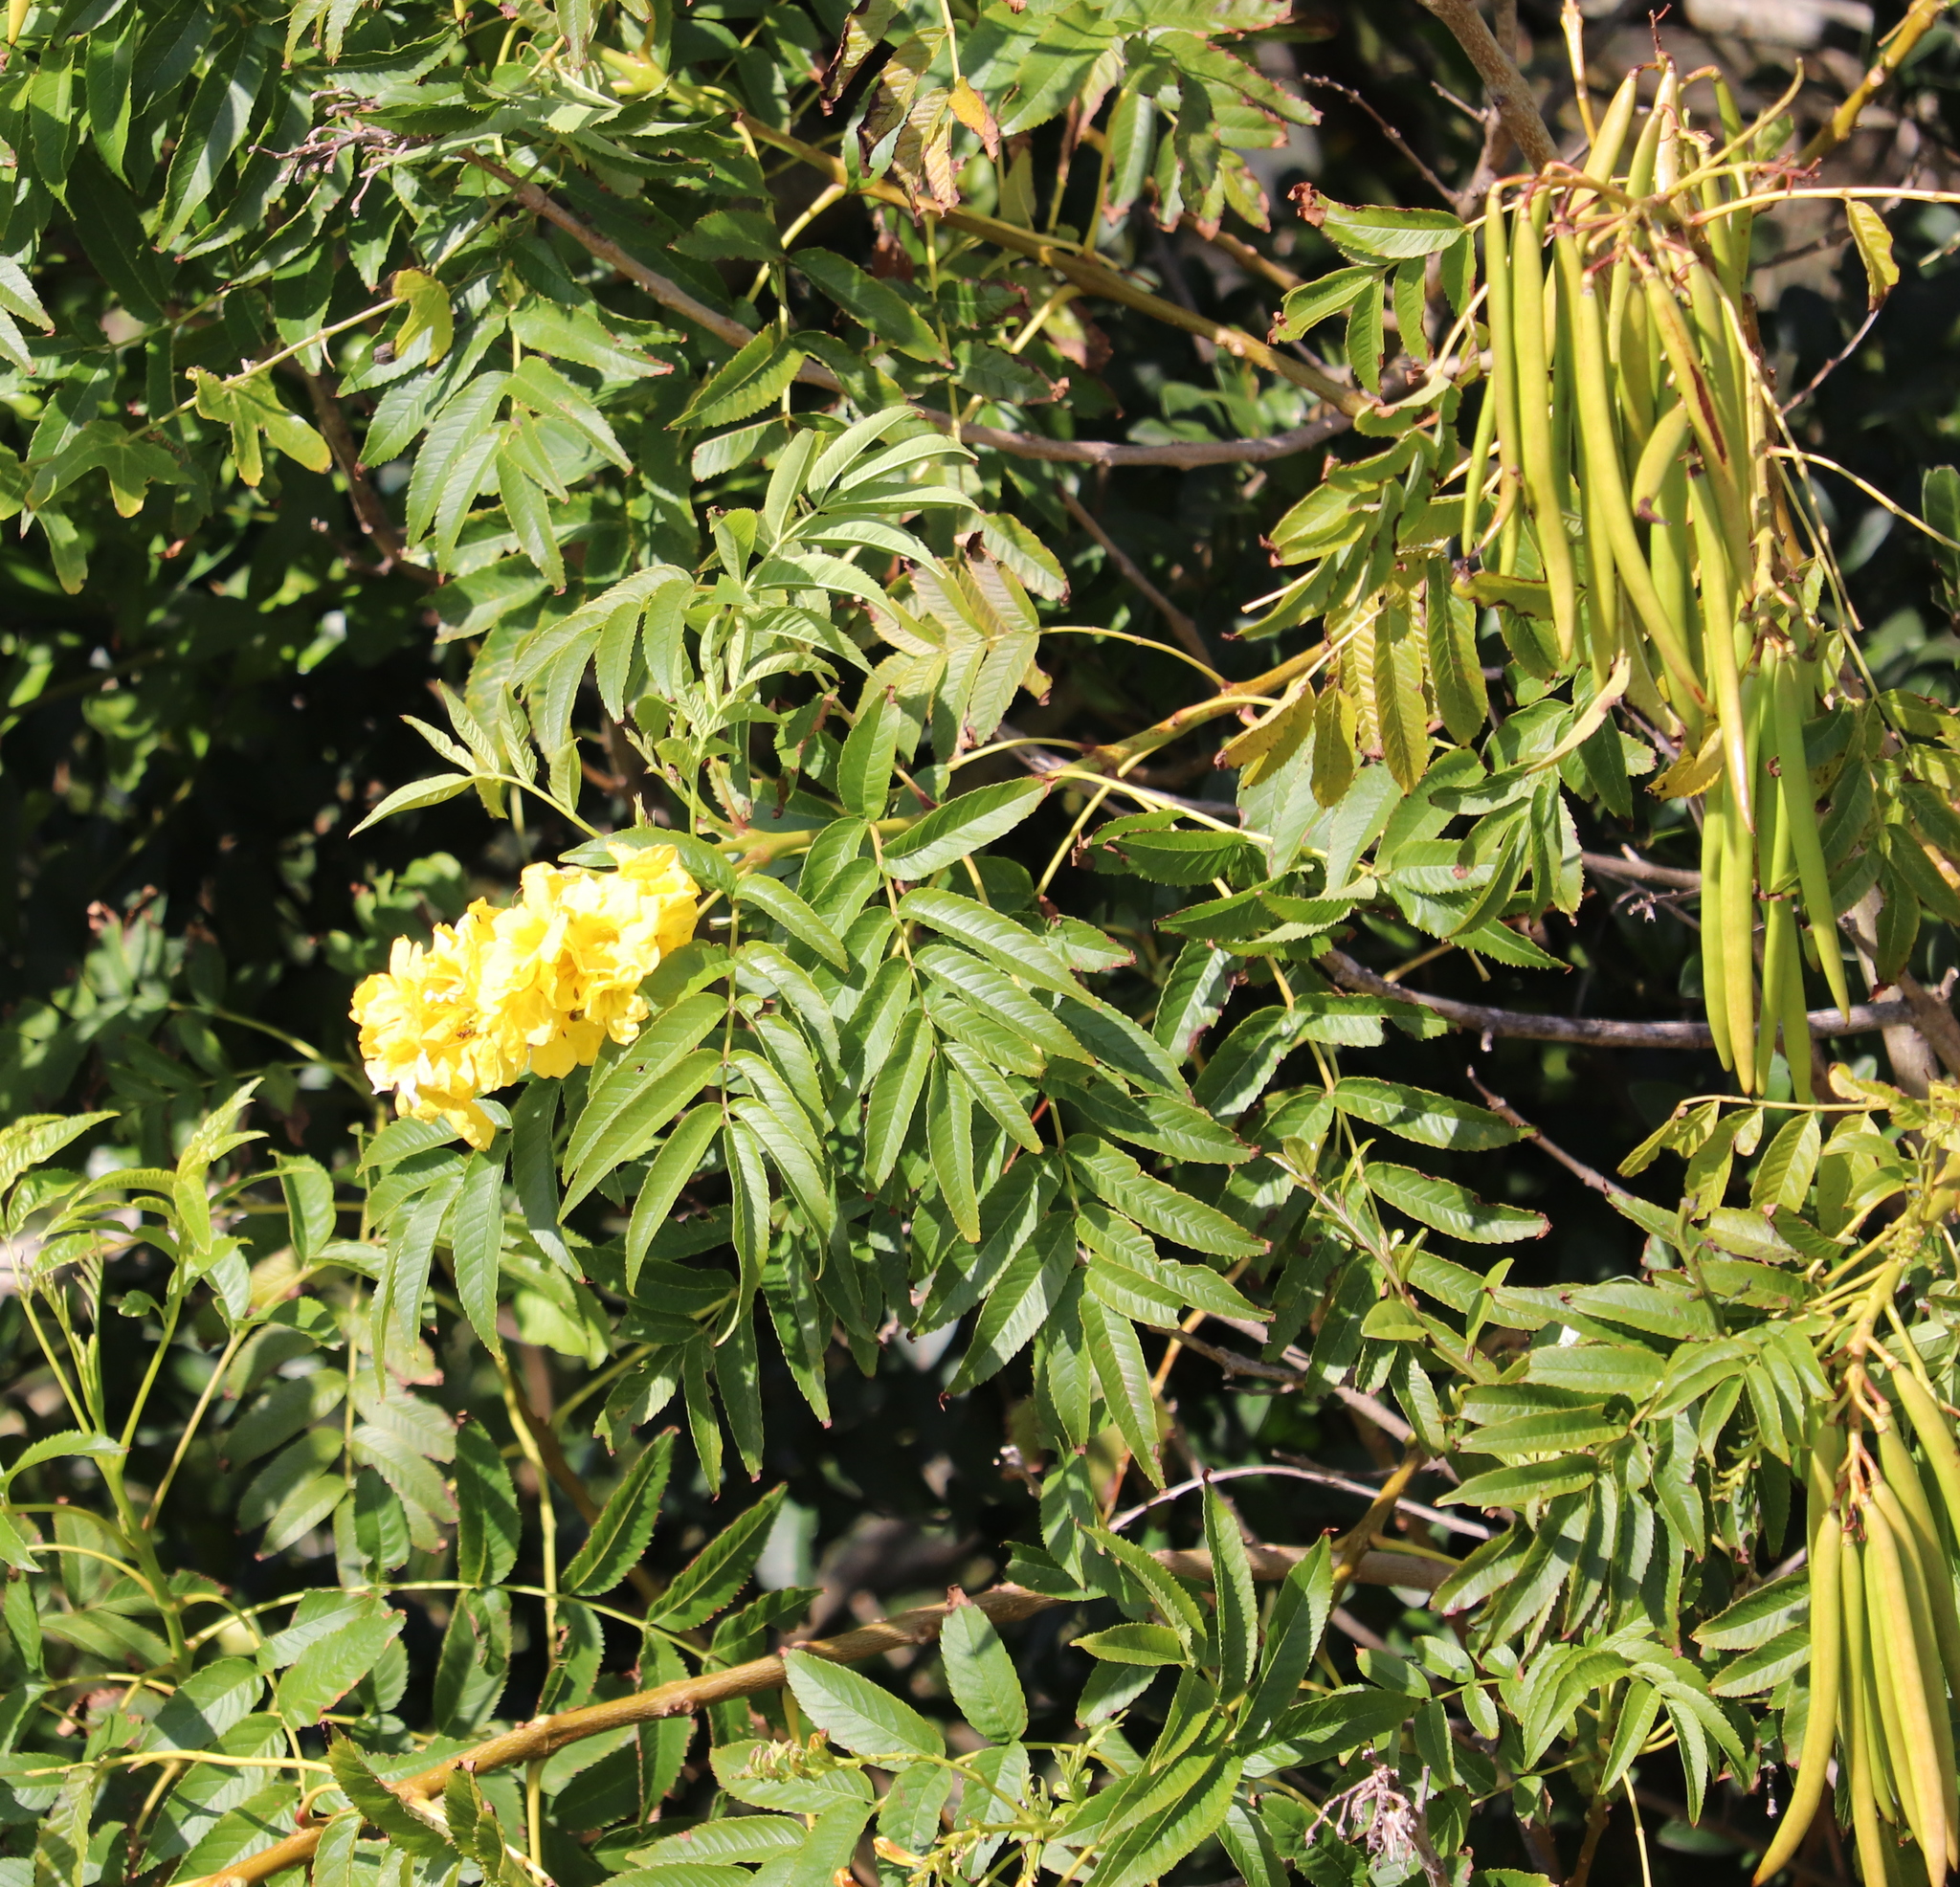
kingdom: Plantae
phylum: Tracheophyta
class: Magnoliopsida
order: Lamiales
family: Bignoniaceae
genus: Tecoma
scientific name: Tecoma stans
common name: Yellow trumpetbush
